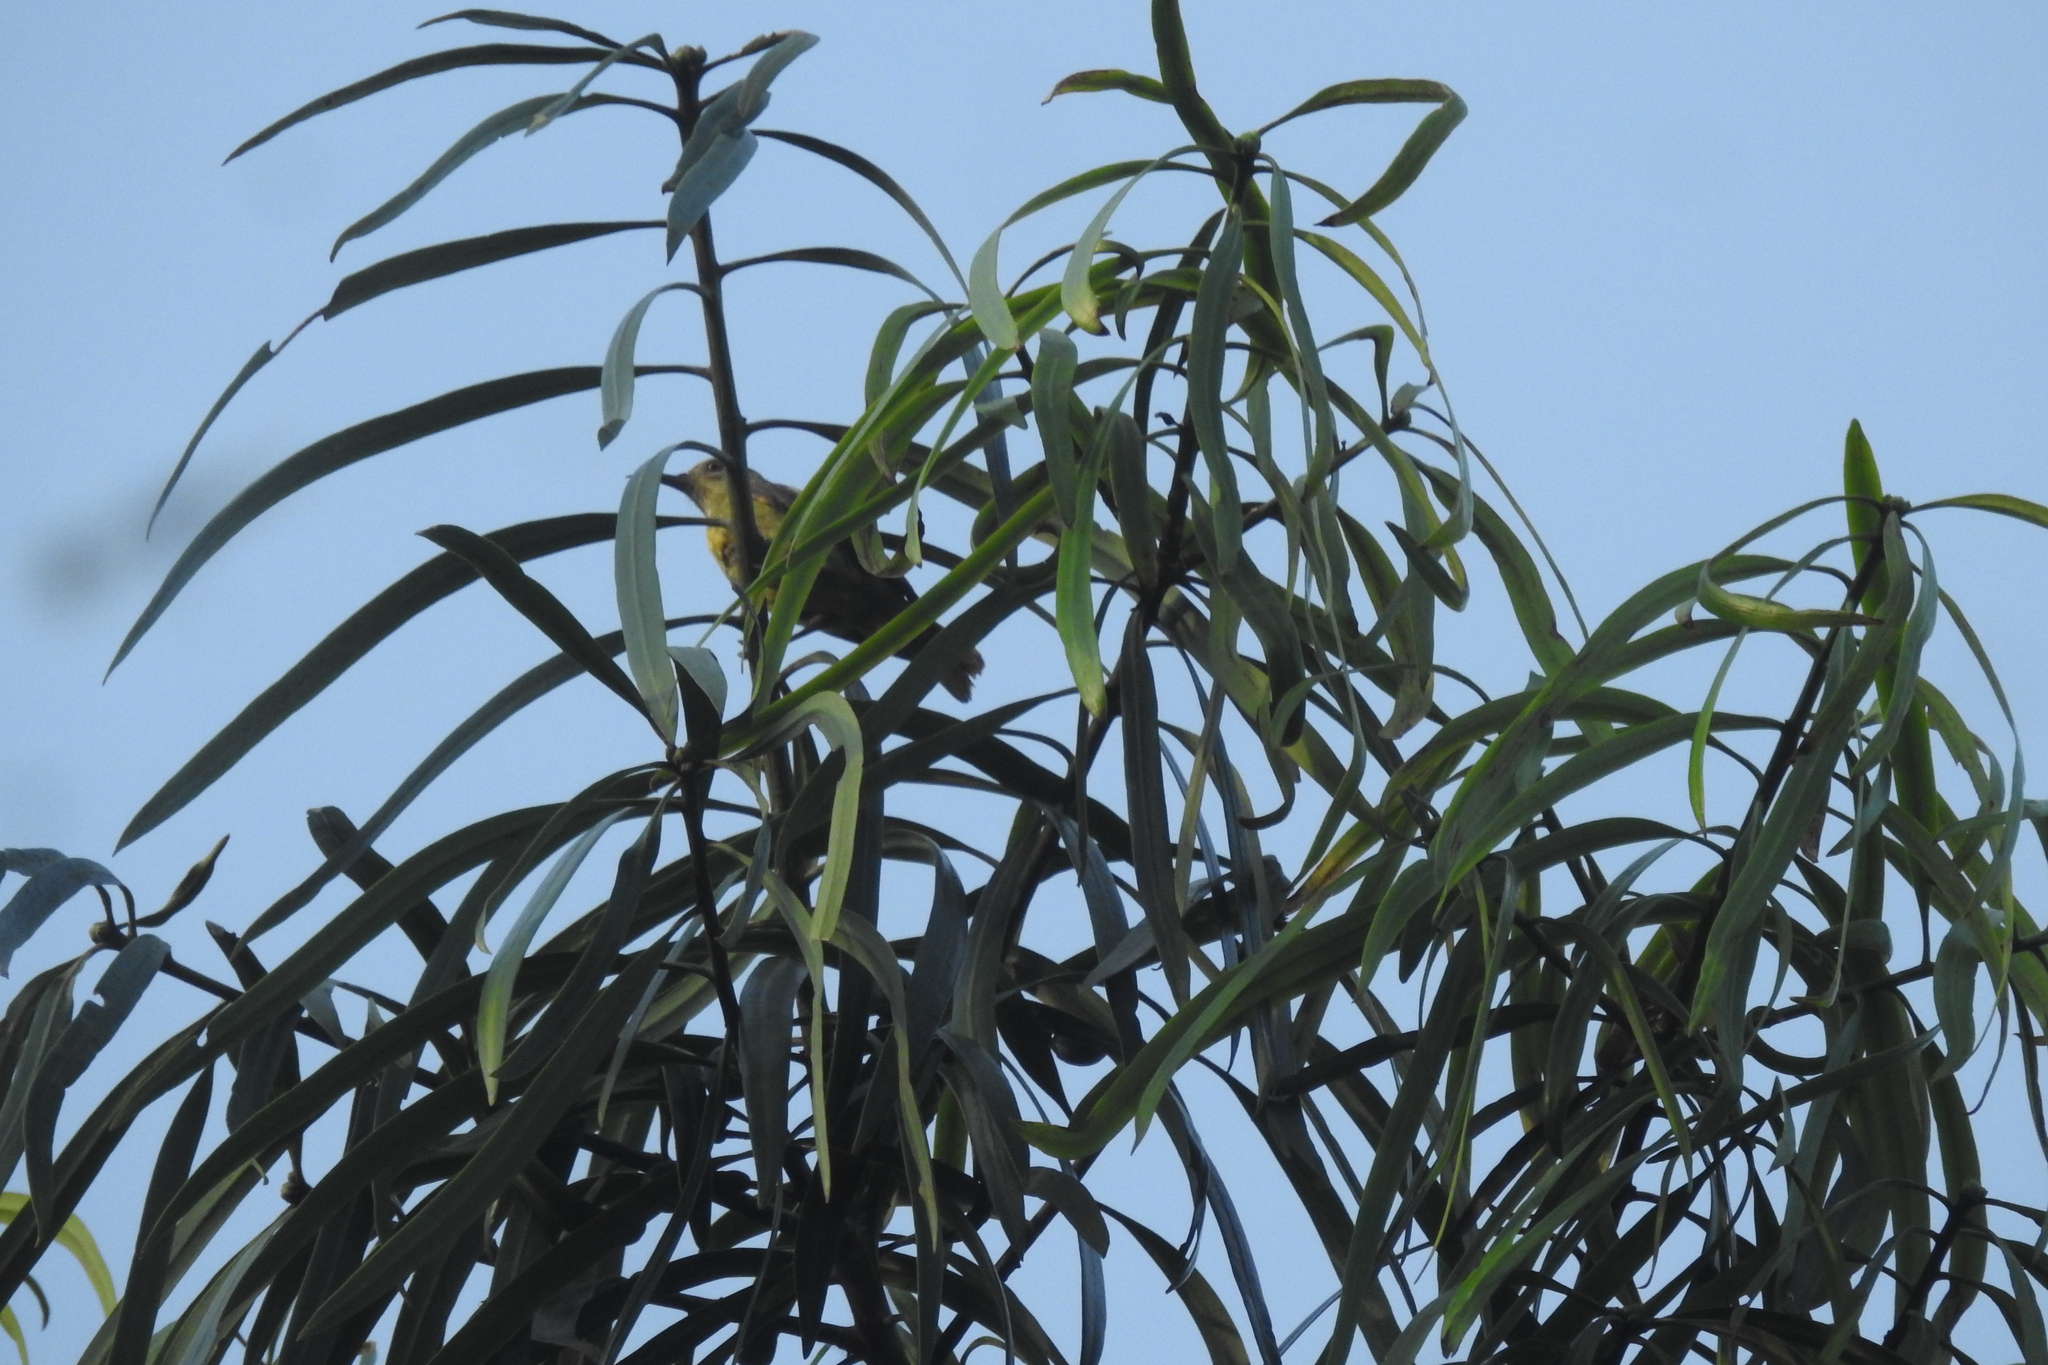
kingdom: Animalia
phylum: Chordata
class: Aves
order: Passeriformes
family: Nectariniidae
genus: Anthreptes
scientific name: Anthreptes malacensis
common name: Brown-throated sunbird
